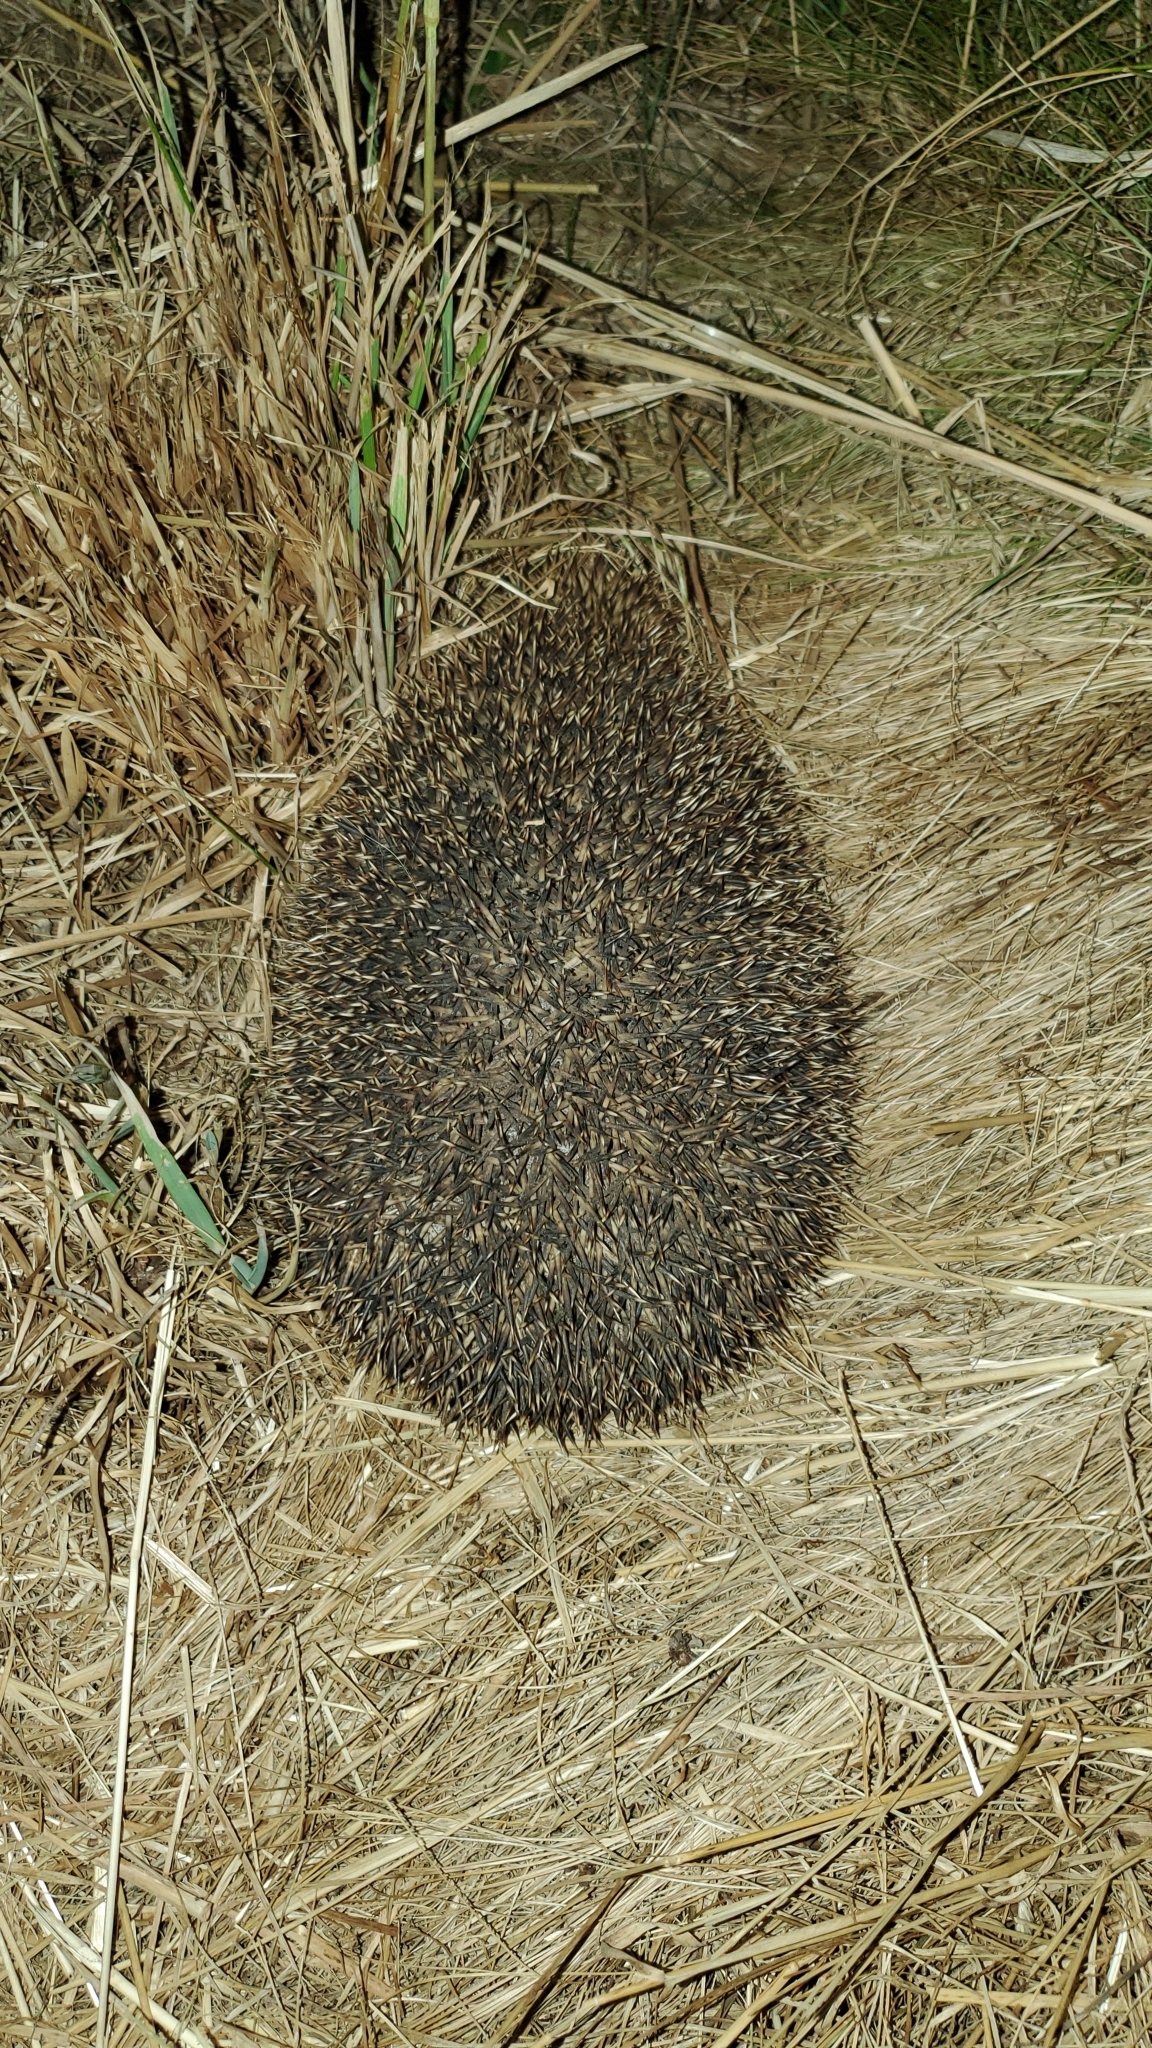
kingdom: Animalia
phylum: Chordata
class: Mammalia
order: Erinaceomorpha
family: Erinaceidae
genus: Erinaceus
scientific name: Erinaceus europaeus
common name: West european hedgehog
